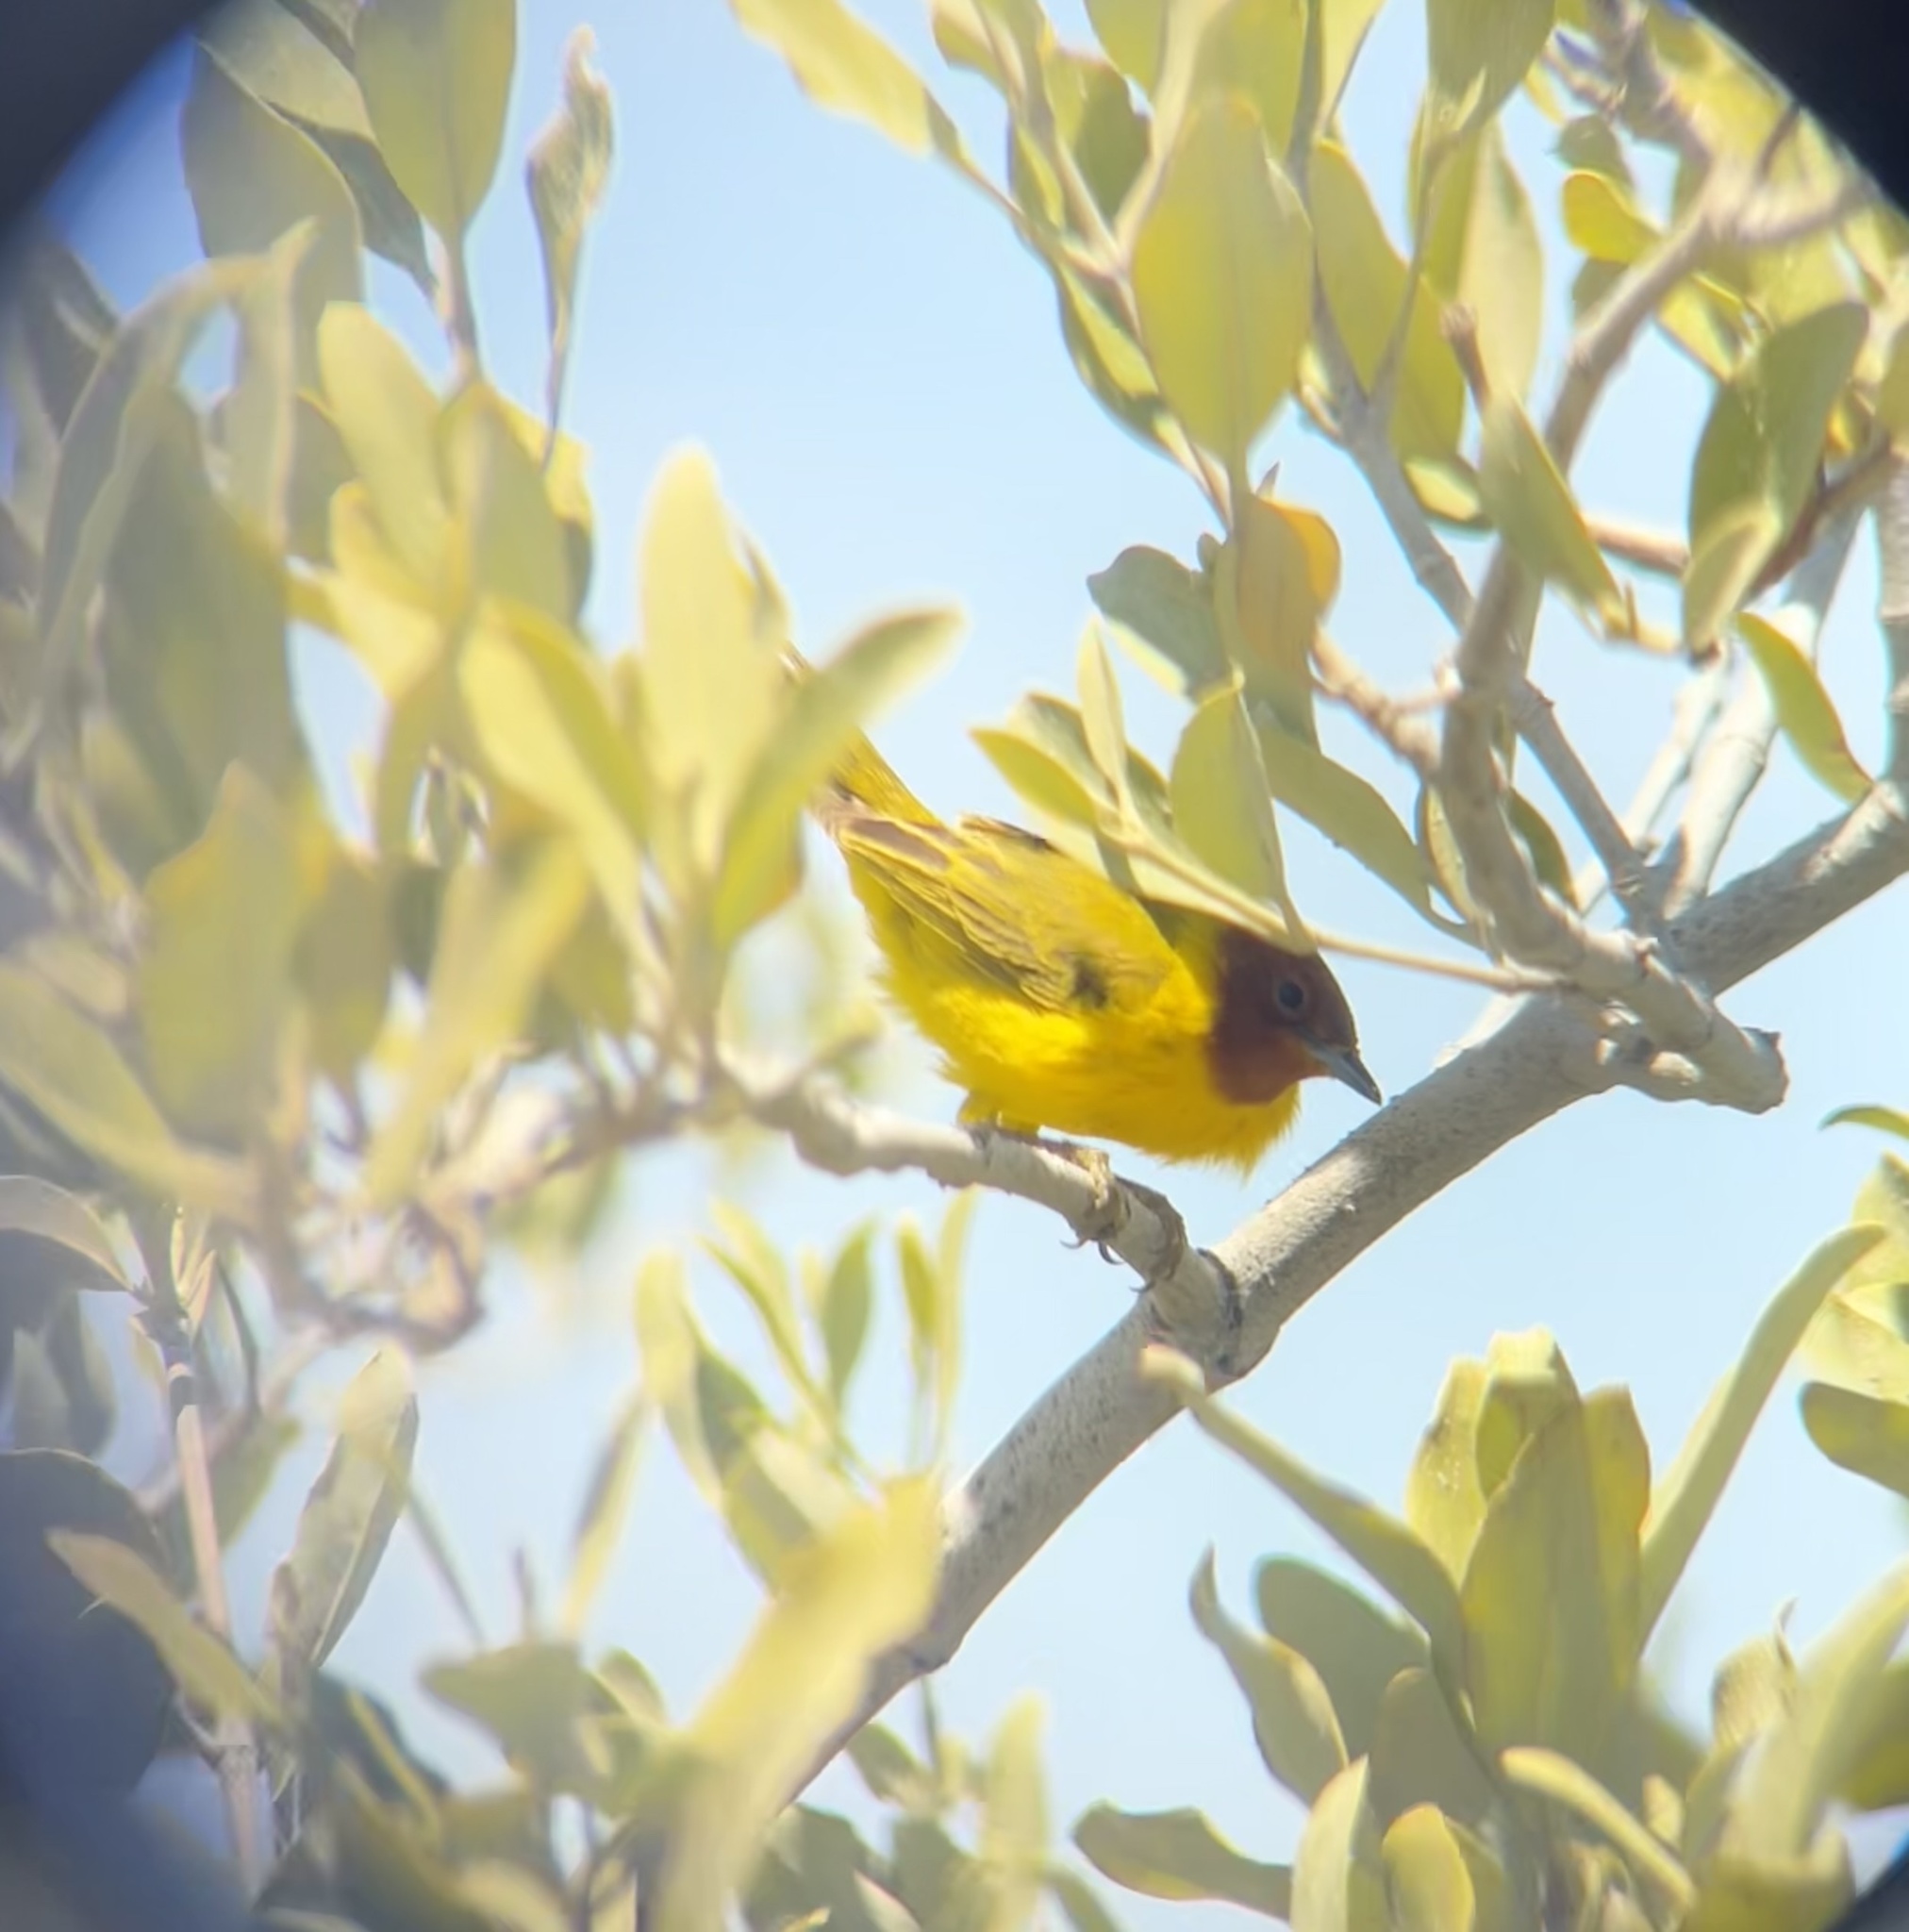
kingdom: Animalia
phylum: Chordata
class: Aves
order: Passeriformes
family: Parulidae
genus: Setophaga
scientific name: Setophaga petechia
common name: Yellow warbler
